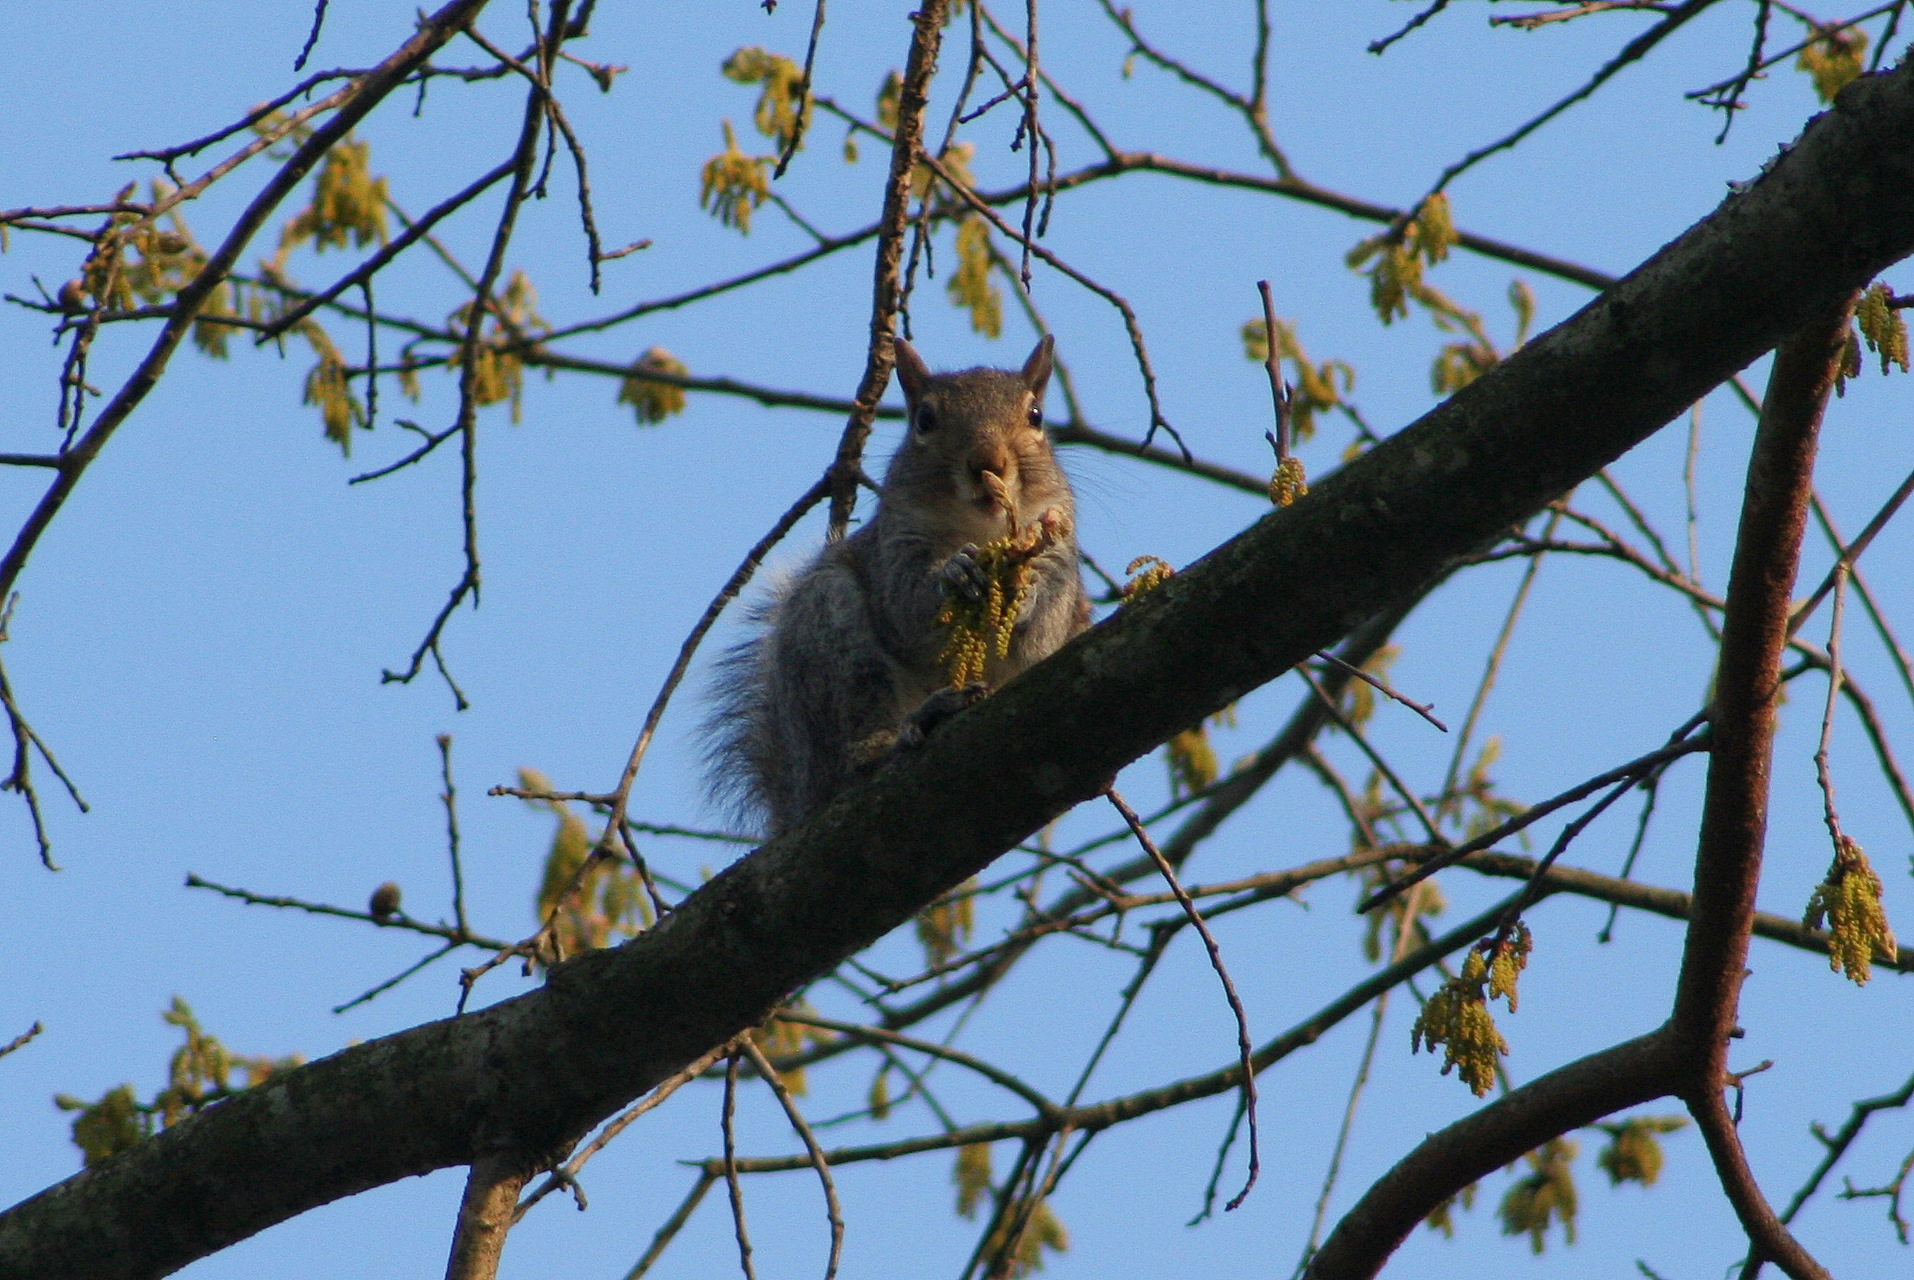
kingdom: Animalia
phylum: Chordata
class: Mammalia
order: Rodentia
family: Sciuridae
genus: Sciurus
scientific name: Sciurus carolinensis
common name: Eastern gray squirrel
